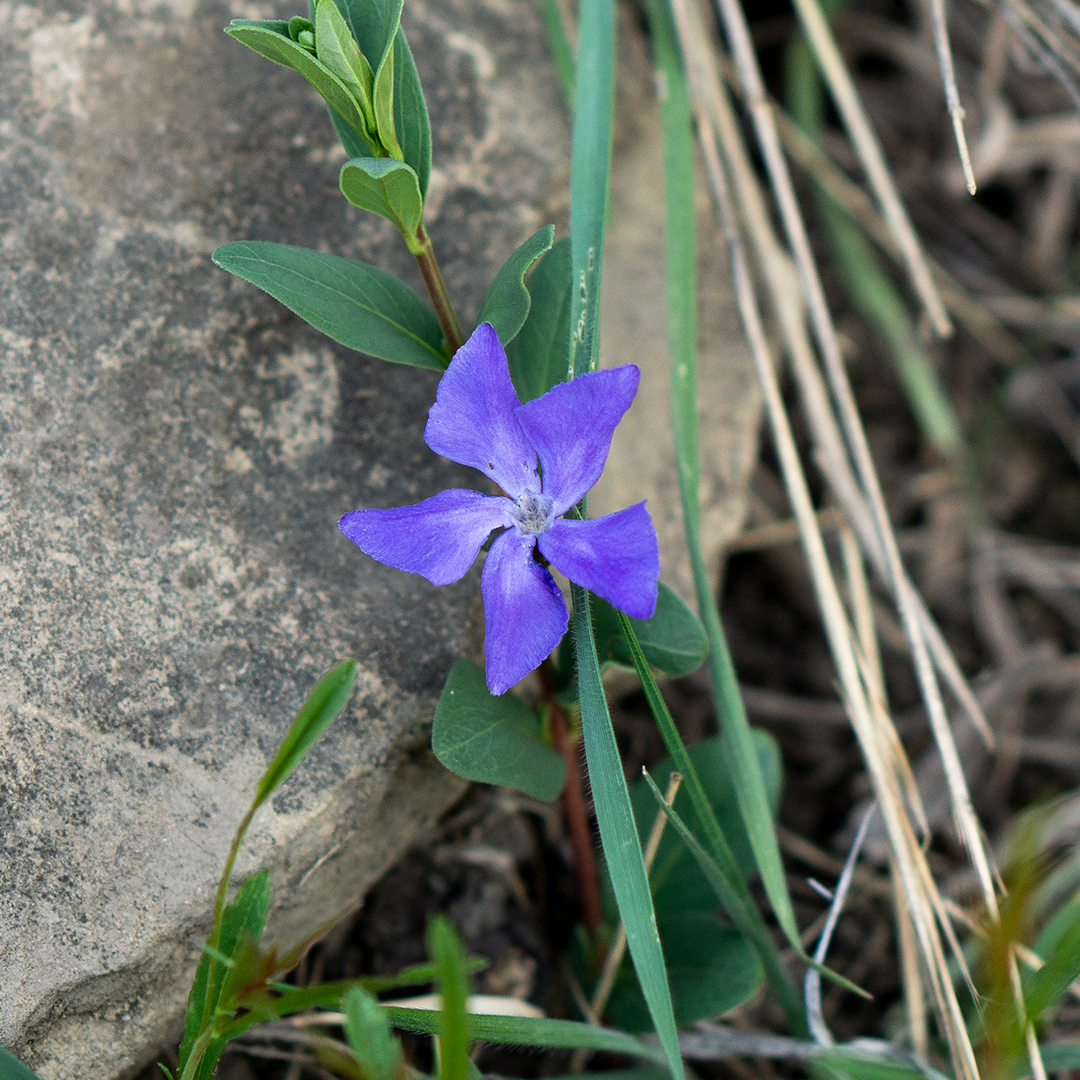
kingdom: Plantae
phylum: Tracheophyta
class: Magnoliopsida
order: Gentianales
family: Apocynaceae
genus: Vinca
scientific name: Vinca herbacea
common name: Herbaceous periwinkle
